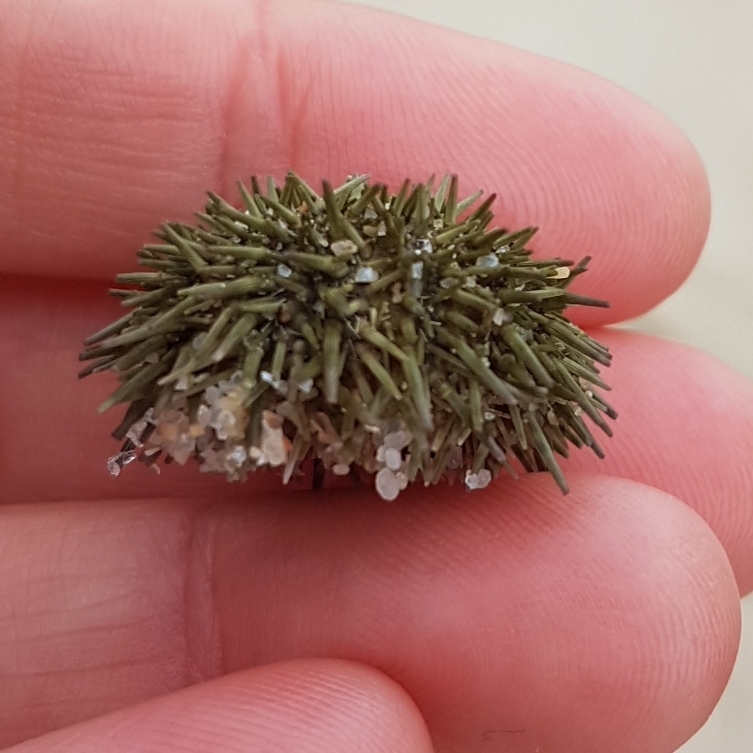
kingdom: Animalia
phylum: Echinodermata
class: Echinoidea
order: Camarodonta
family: Parechinidae
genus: Paracentrotus
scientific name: Paracentrotus lividus
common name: Purple sea urchin
